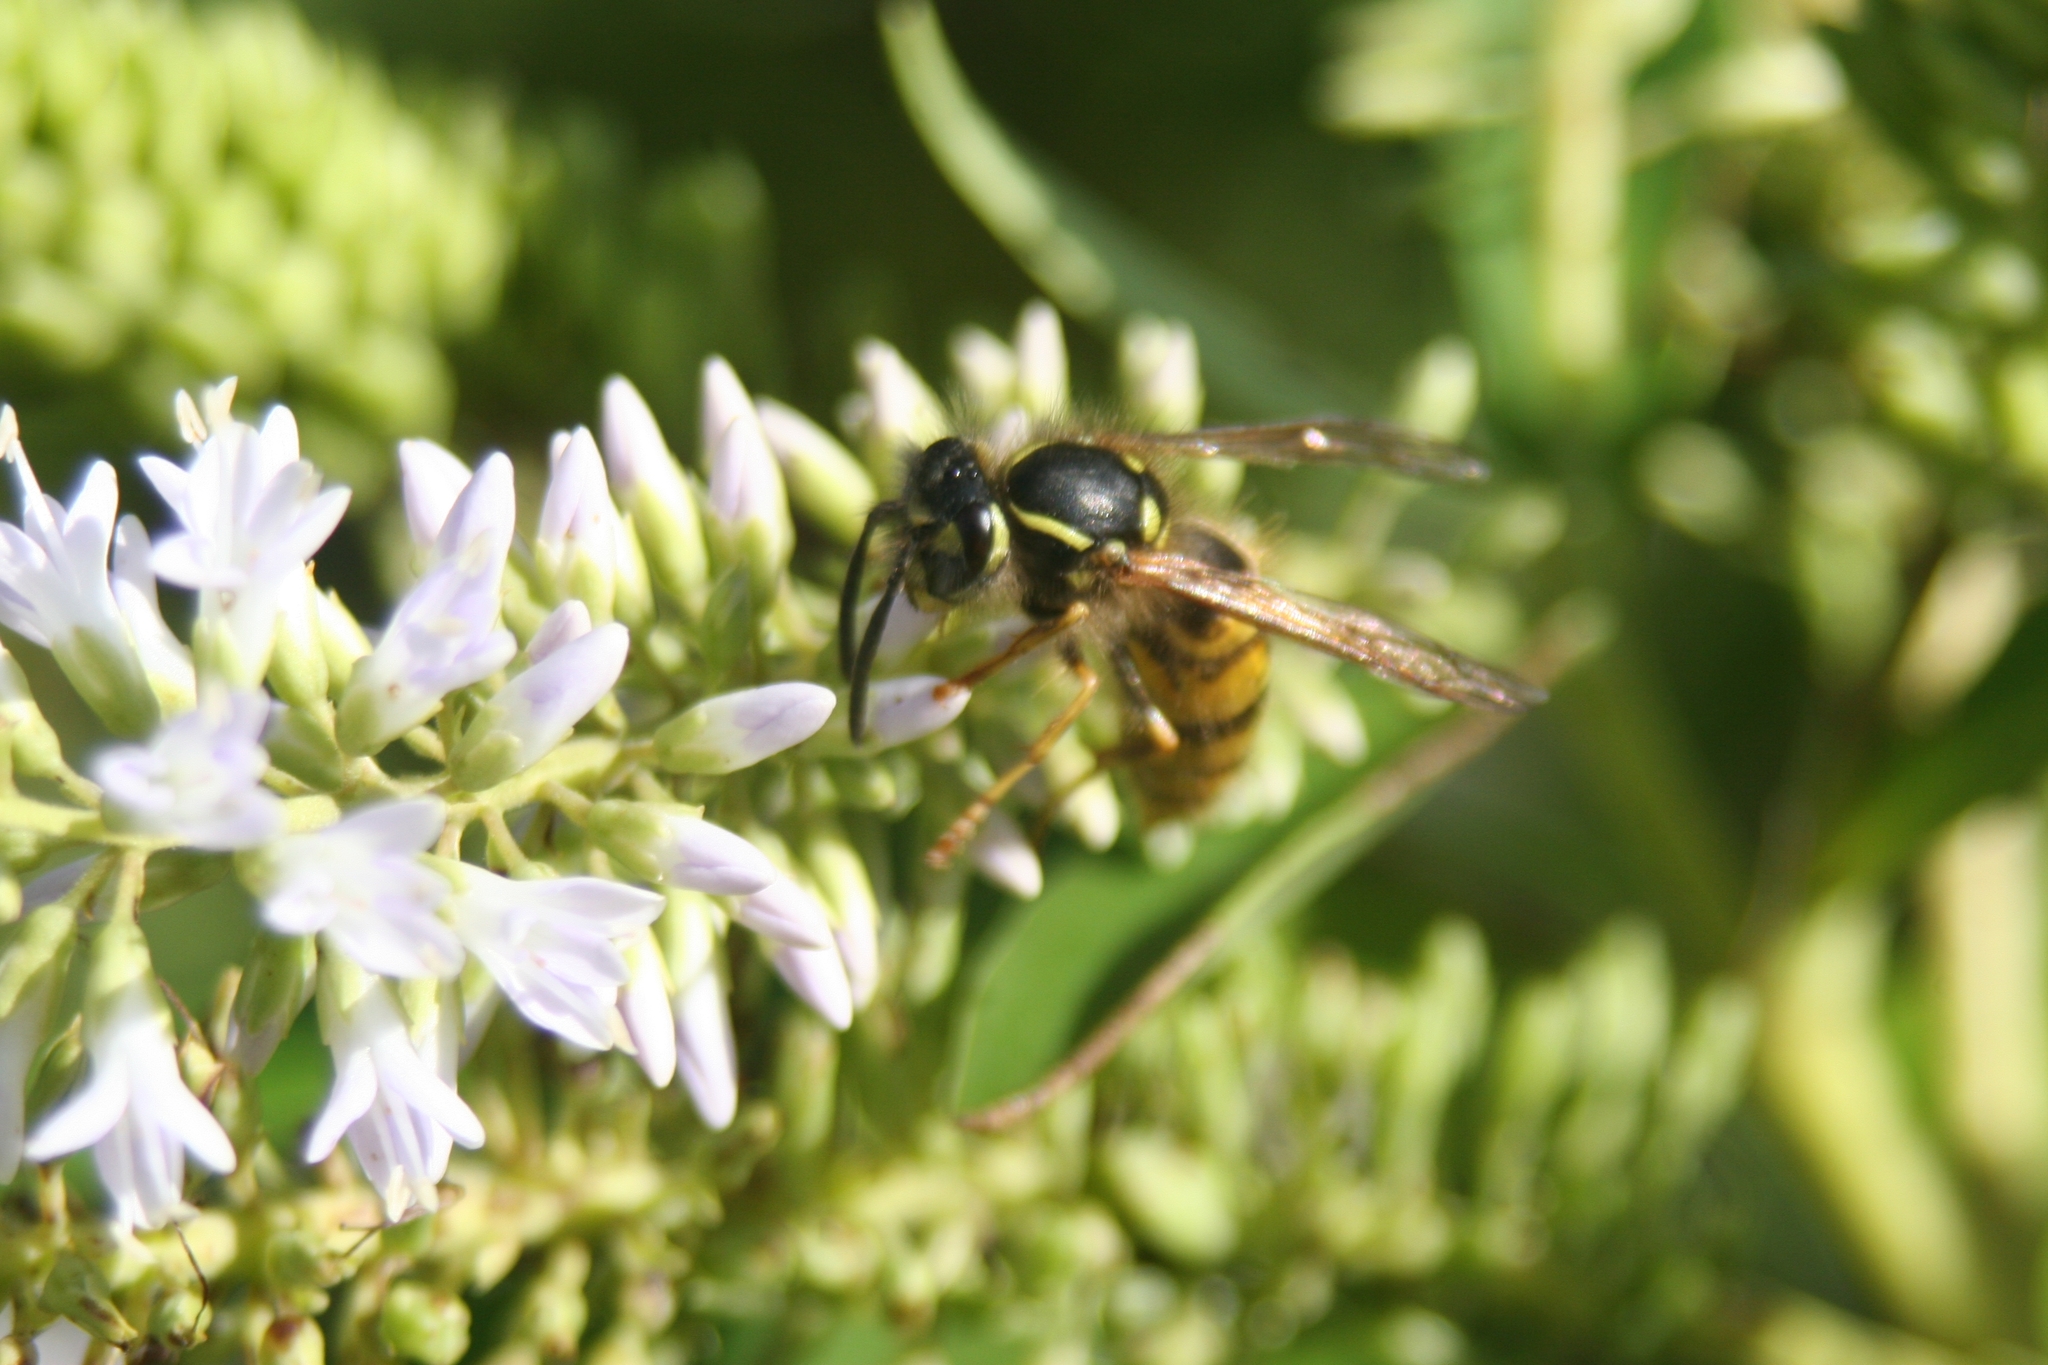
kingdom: Animalia
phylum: Arthropoda
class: Insecta
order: Hymenoptera
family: Vespidae
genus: Vespula
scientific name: Vespula vulgaris
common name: Common wasp
